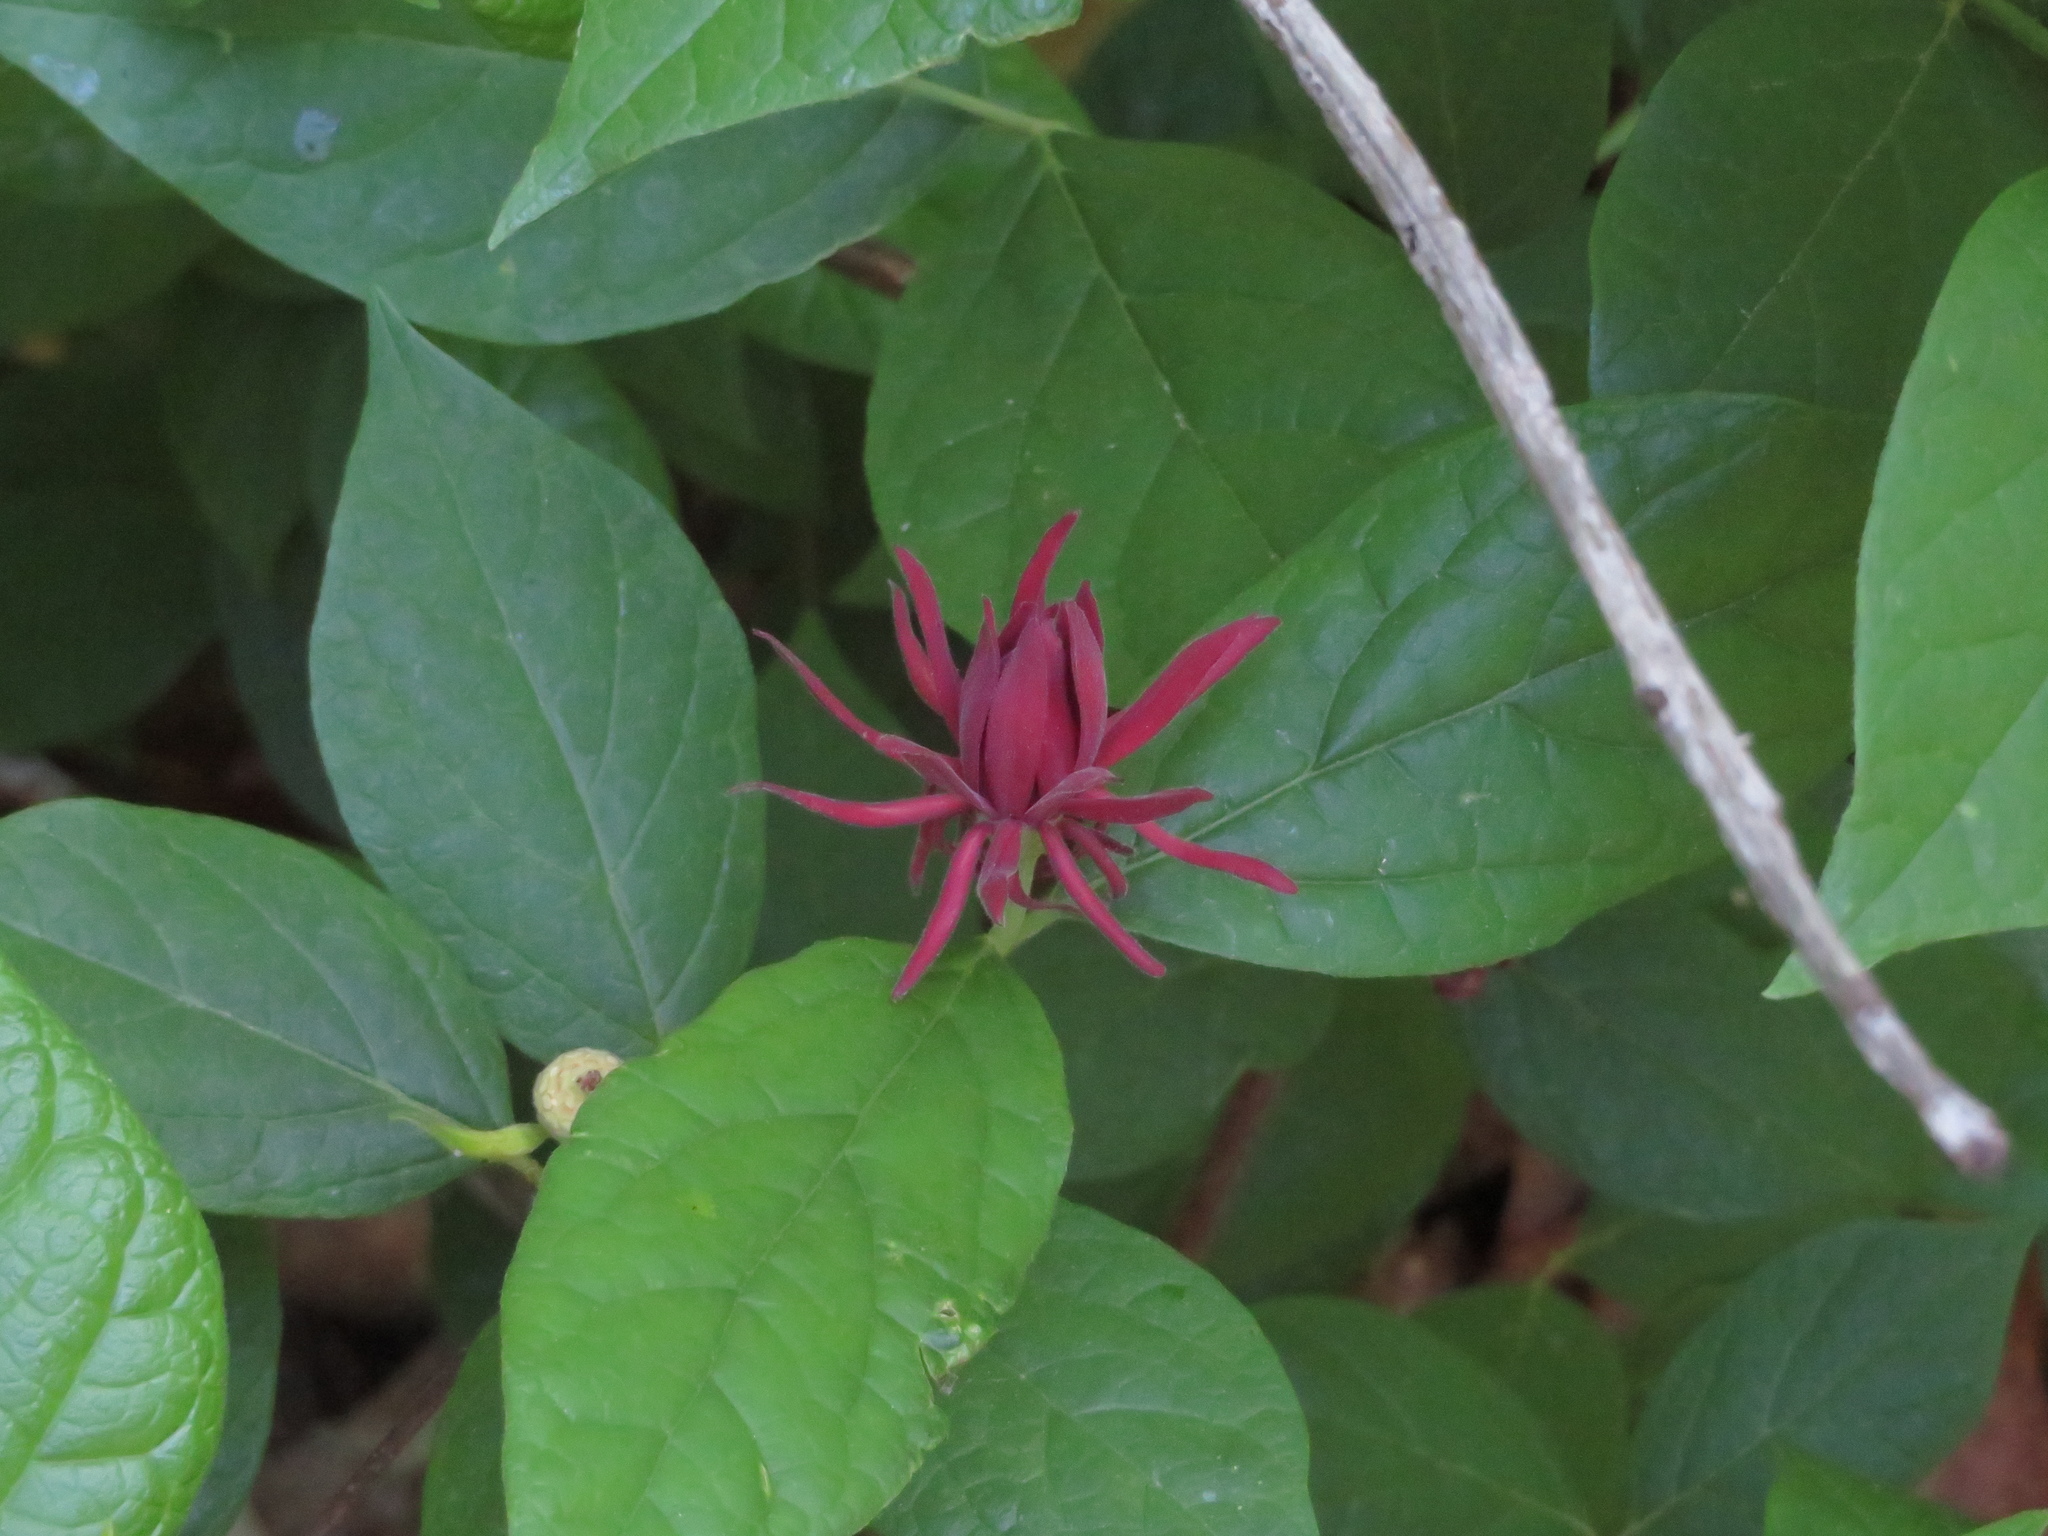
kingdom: Plantae
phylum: Tracheophyta
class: Magnoliopsida
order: Laurales
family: Calycanthaceae
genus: Calycanthus
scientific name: Calycanthus floridus
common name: Carolina-allspice
